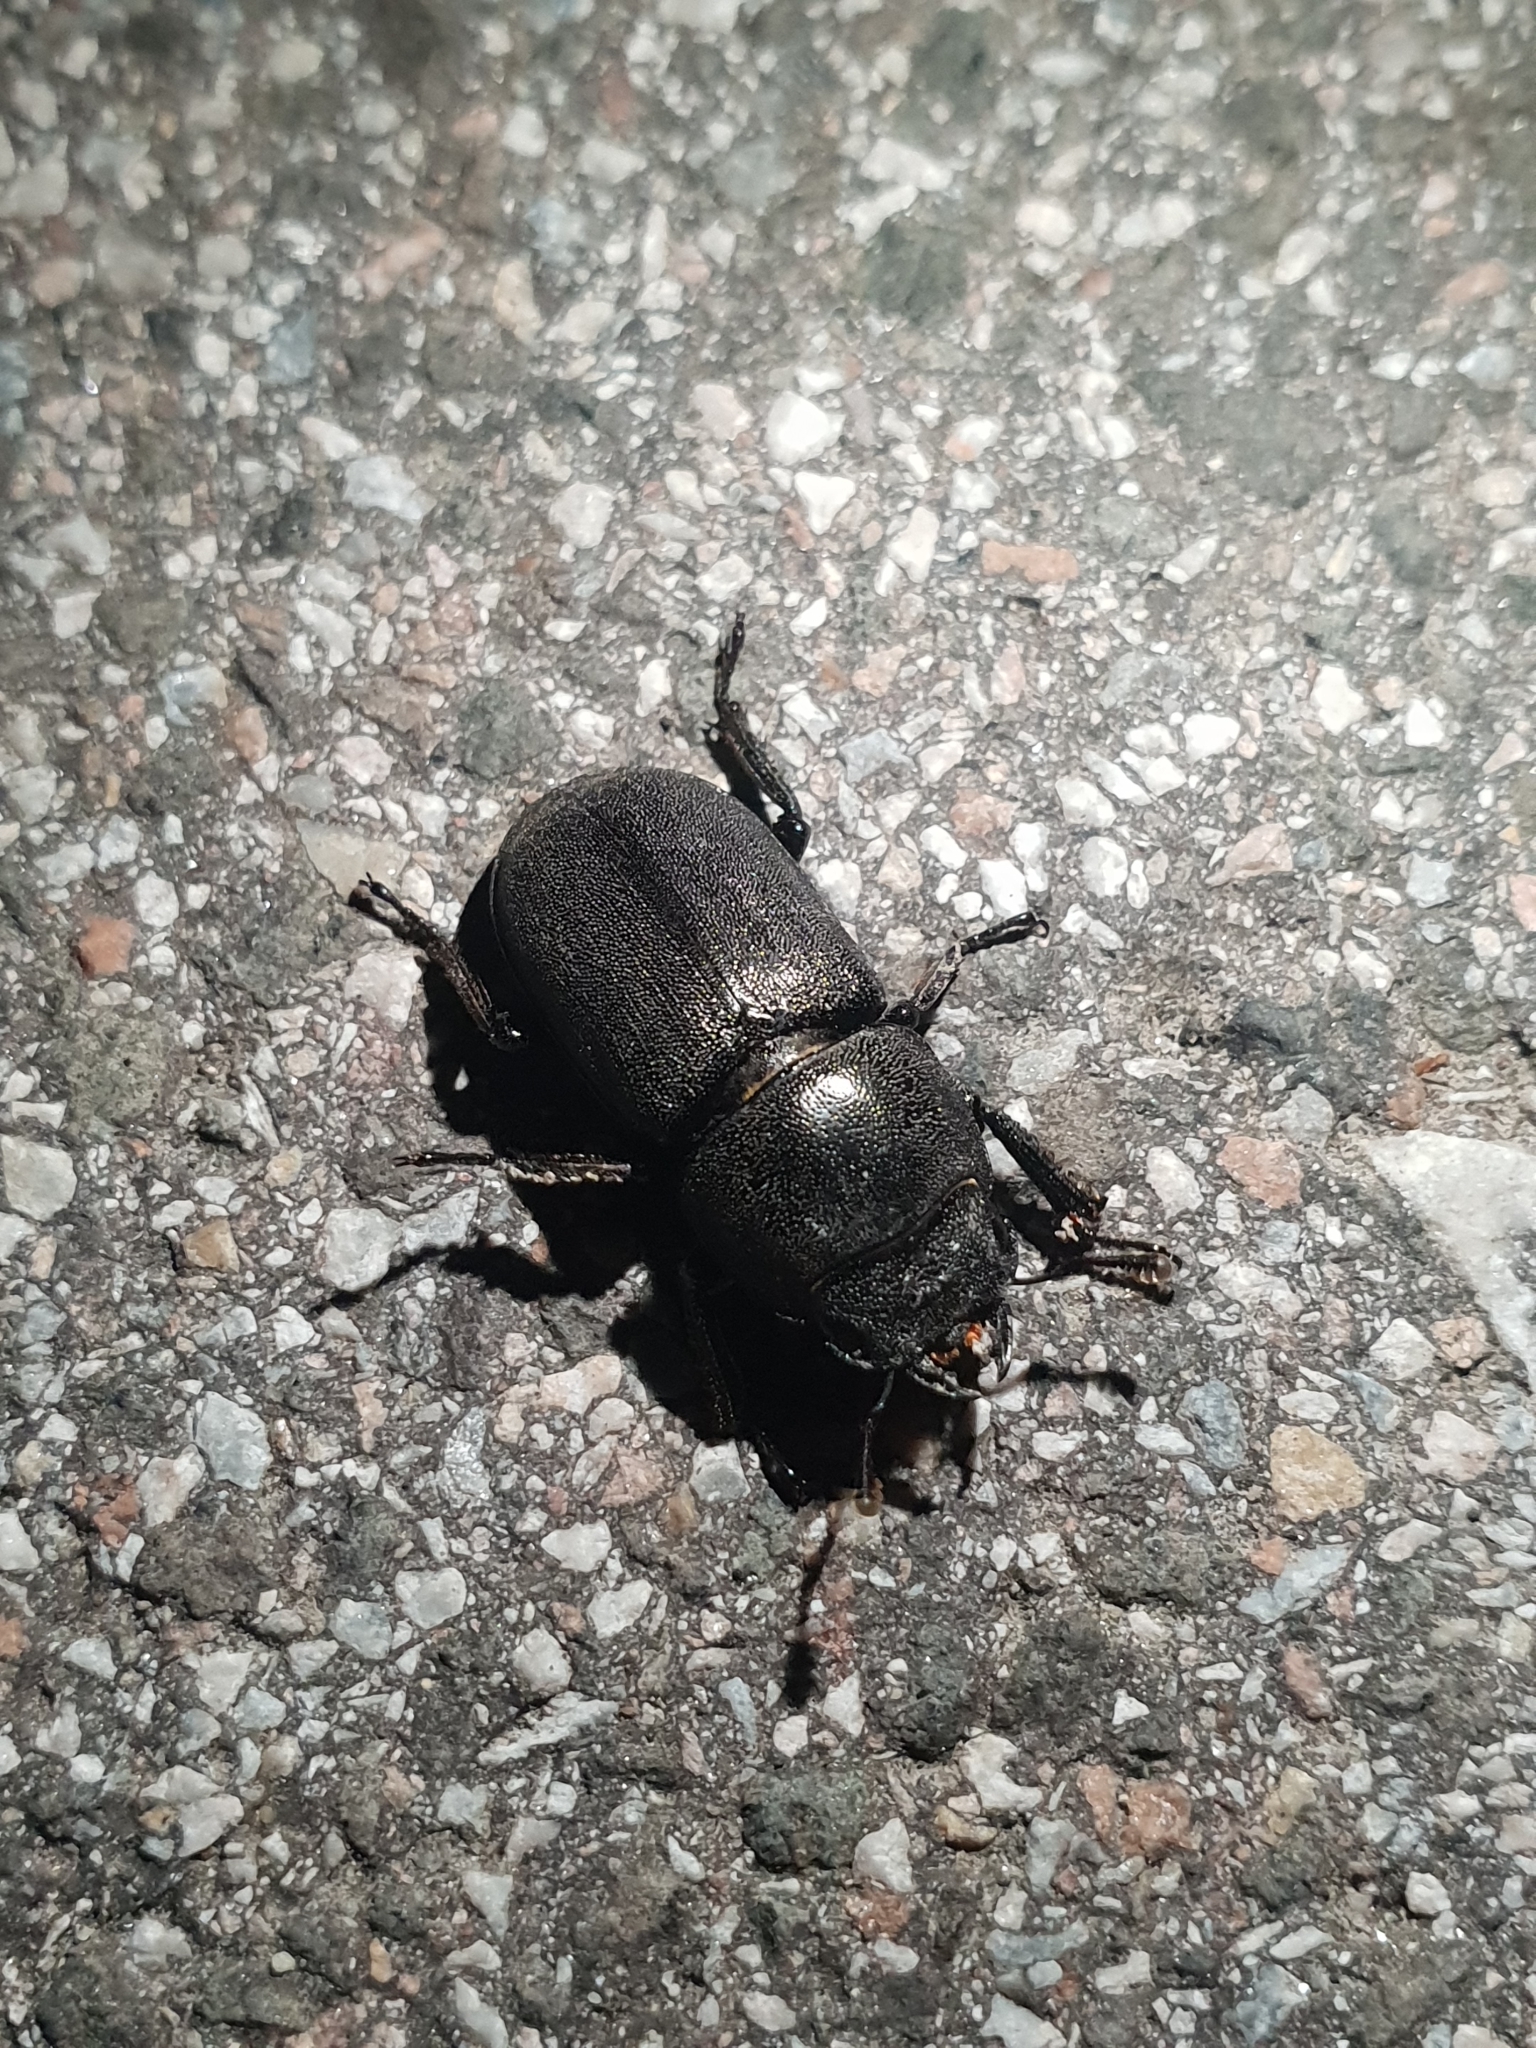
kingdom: Animalia
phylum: Arthropoda
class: Insecta
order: Coleoptera
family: Lucanidae
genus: Dorcus
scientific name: Dorcus parallelipipedus
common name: Lesser stag beetle
